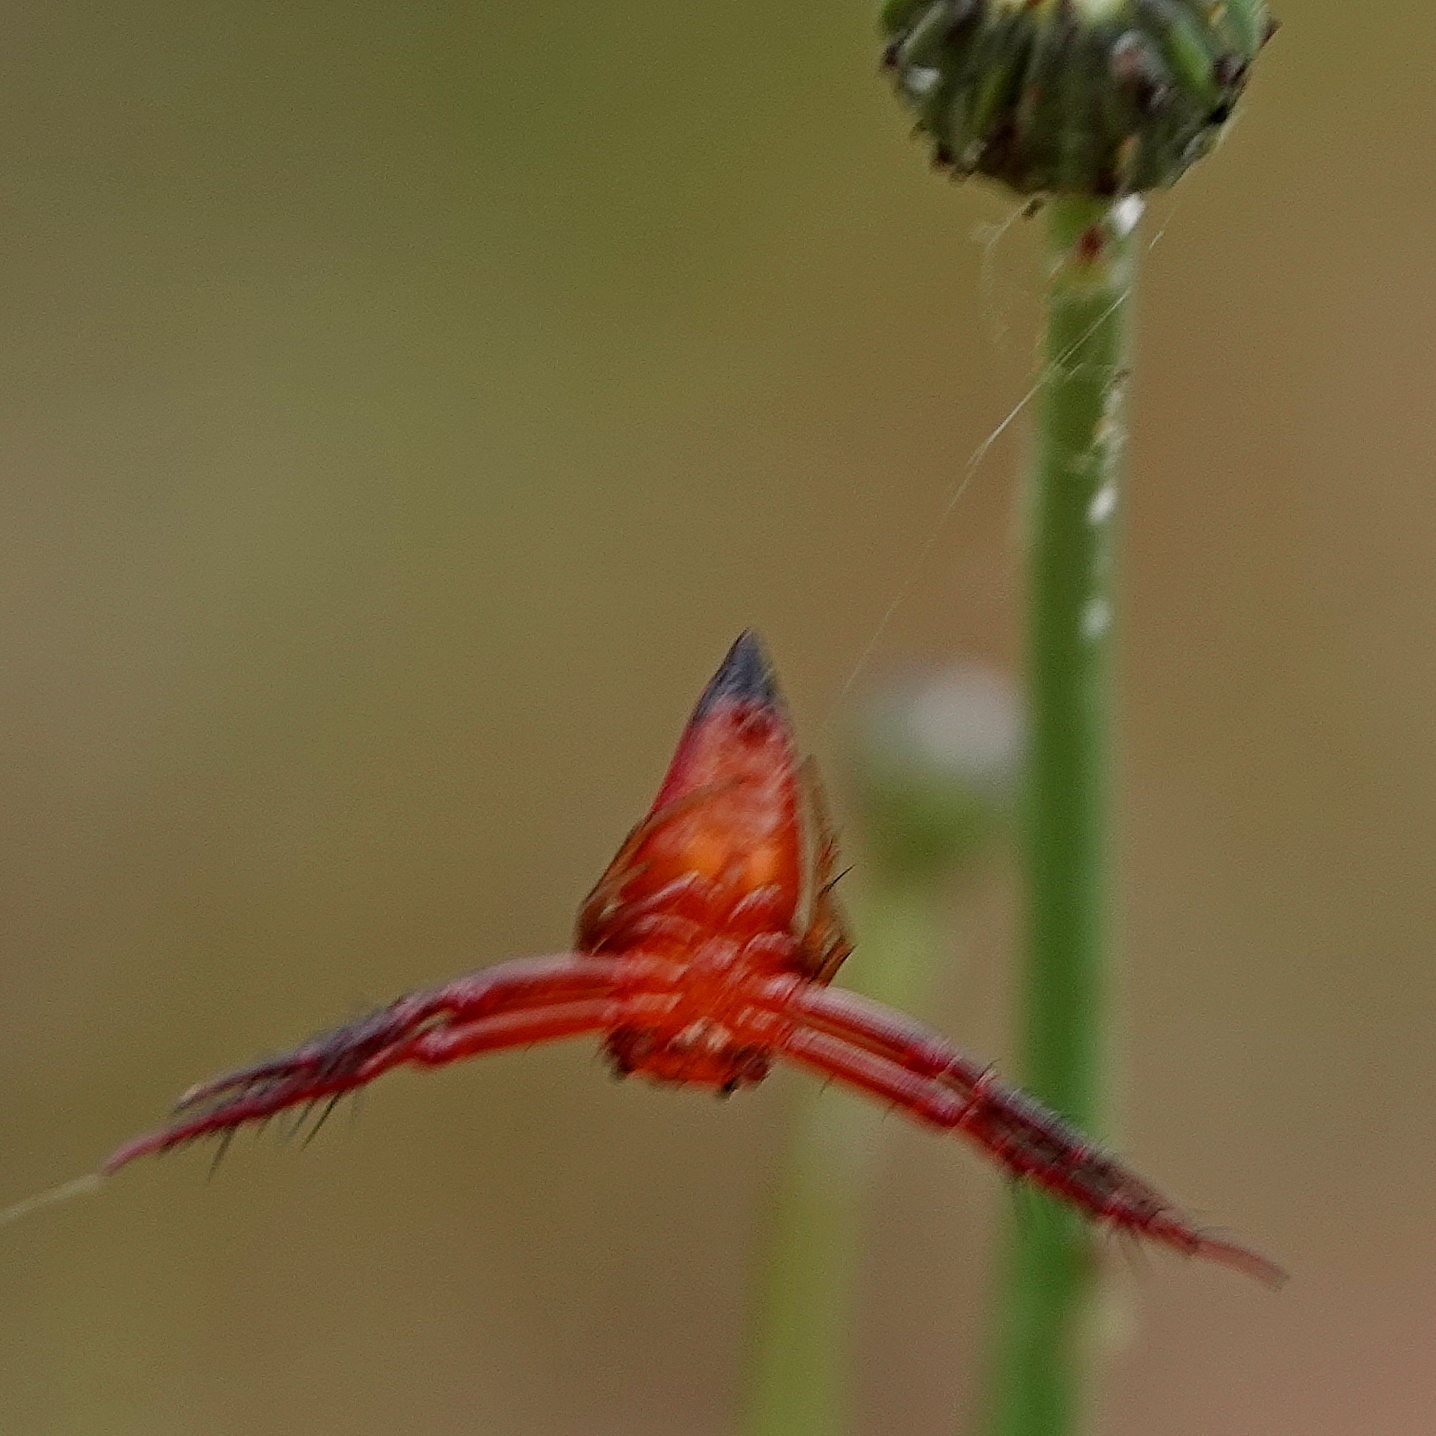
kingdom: Animalia
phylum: Arthropoda
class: Arachnida
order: Araneae
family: Arkyidae
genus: Arkys
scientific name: Arkys walckenaeri
